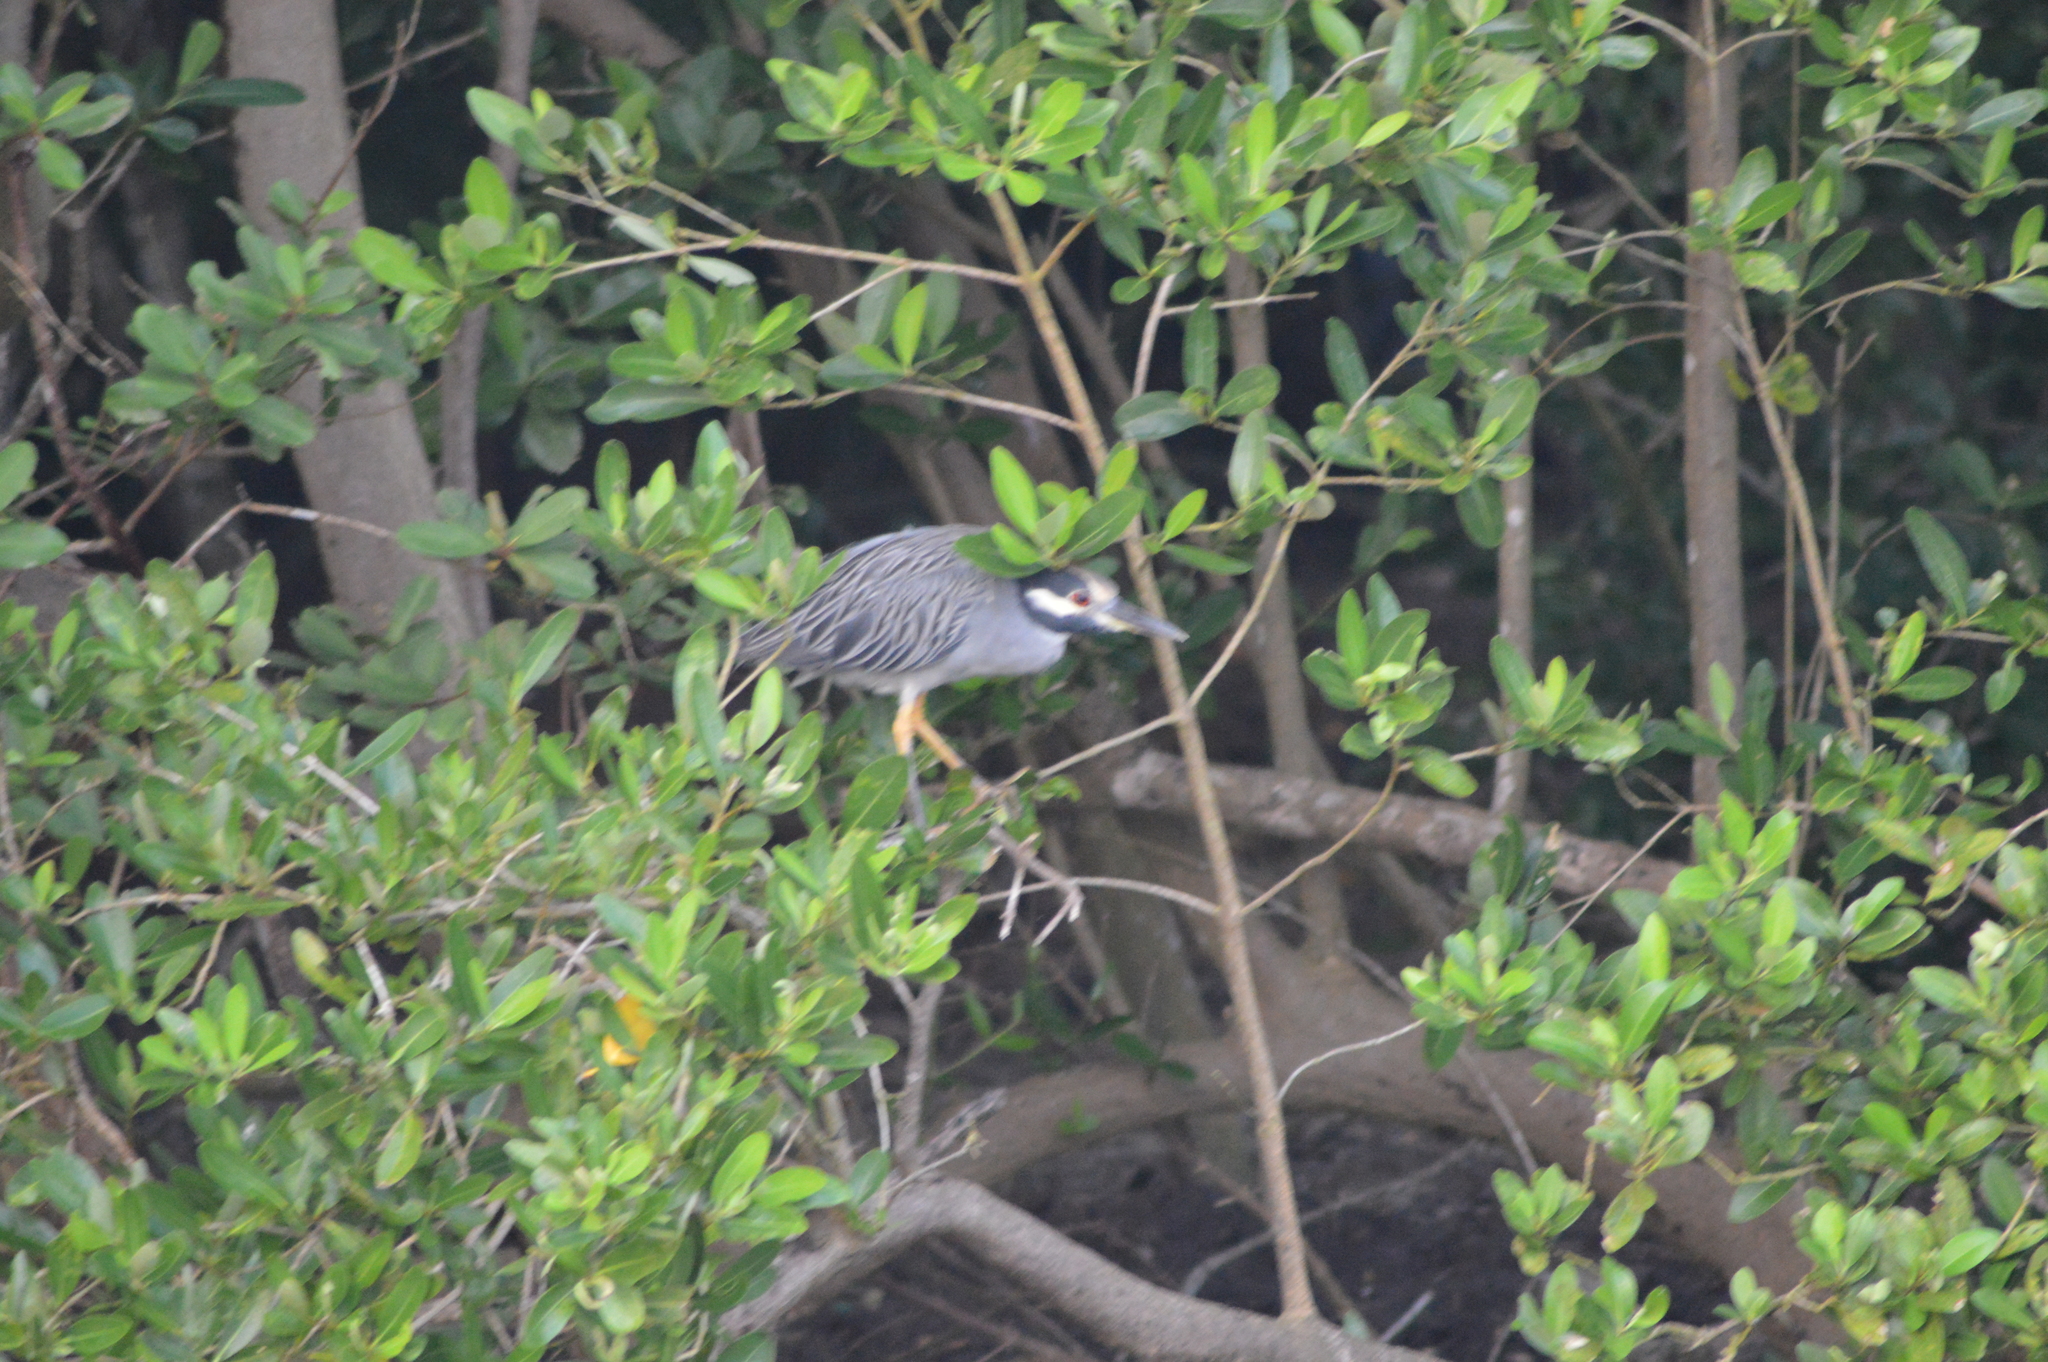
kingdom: Animalia
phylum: Chordata
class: Aves
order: Pelecaniformes
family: Ardeidae
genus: Nyctanassa
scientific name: Nyctanassa violacea
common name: Yellow-crowned night heron
